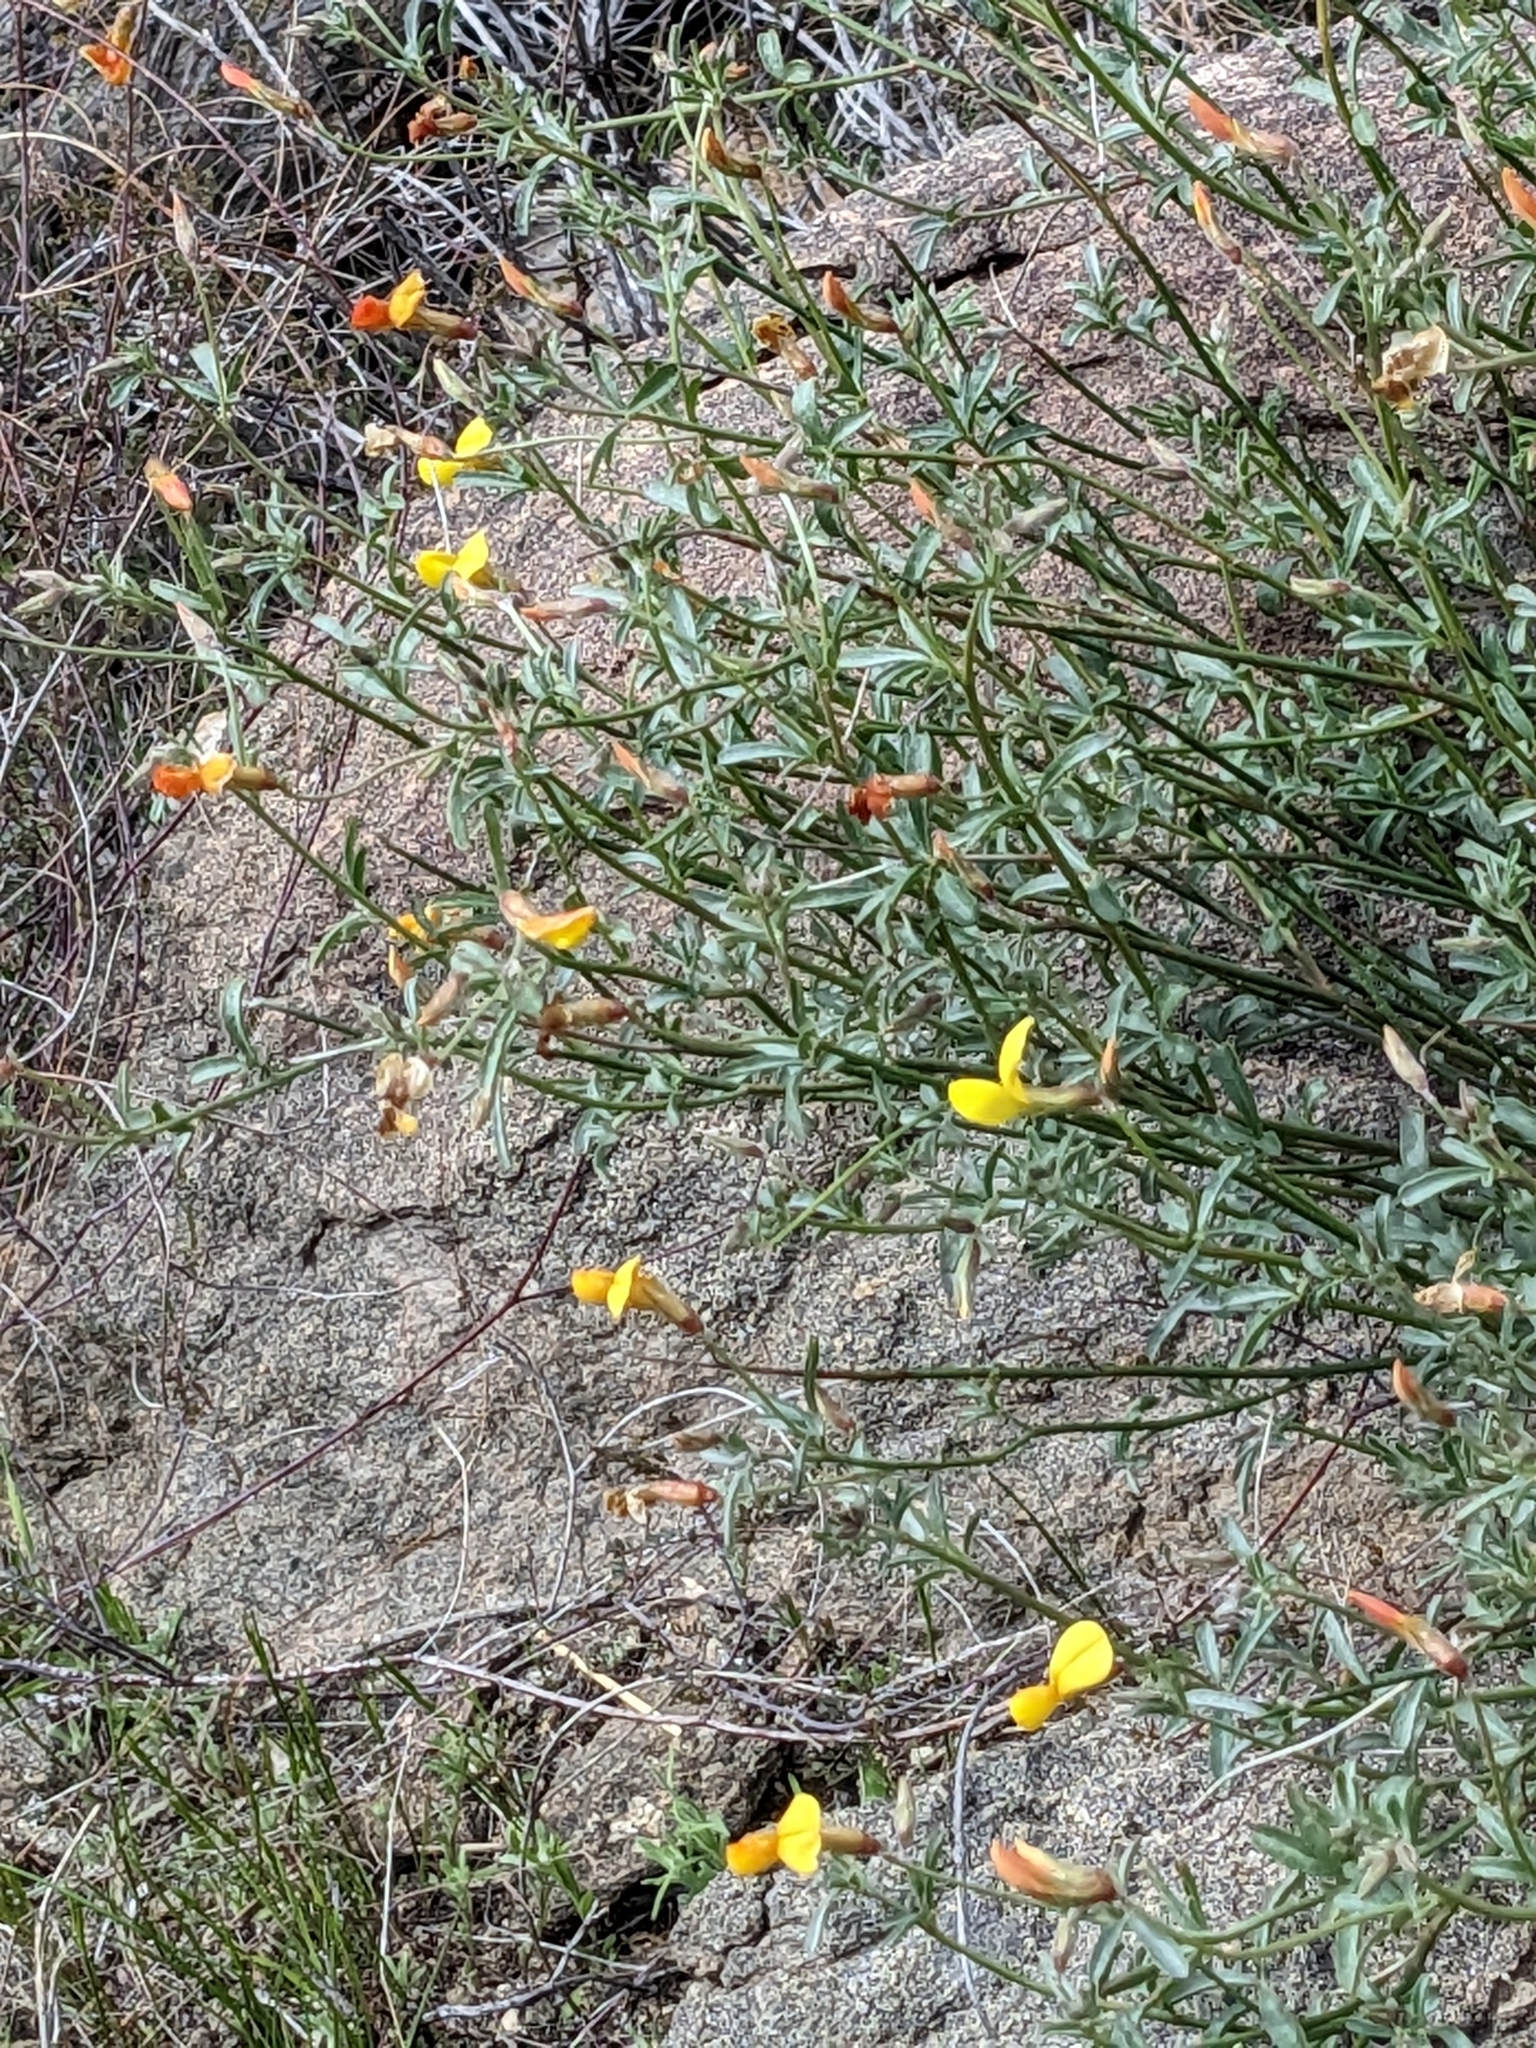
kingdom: Plantae
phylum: Tracheophyta
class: Magnoliopsida
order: Fabales
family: Fabaceae
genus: Acmispon
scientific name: Acmispon rigidus
